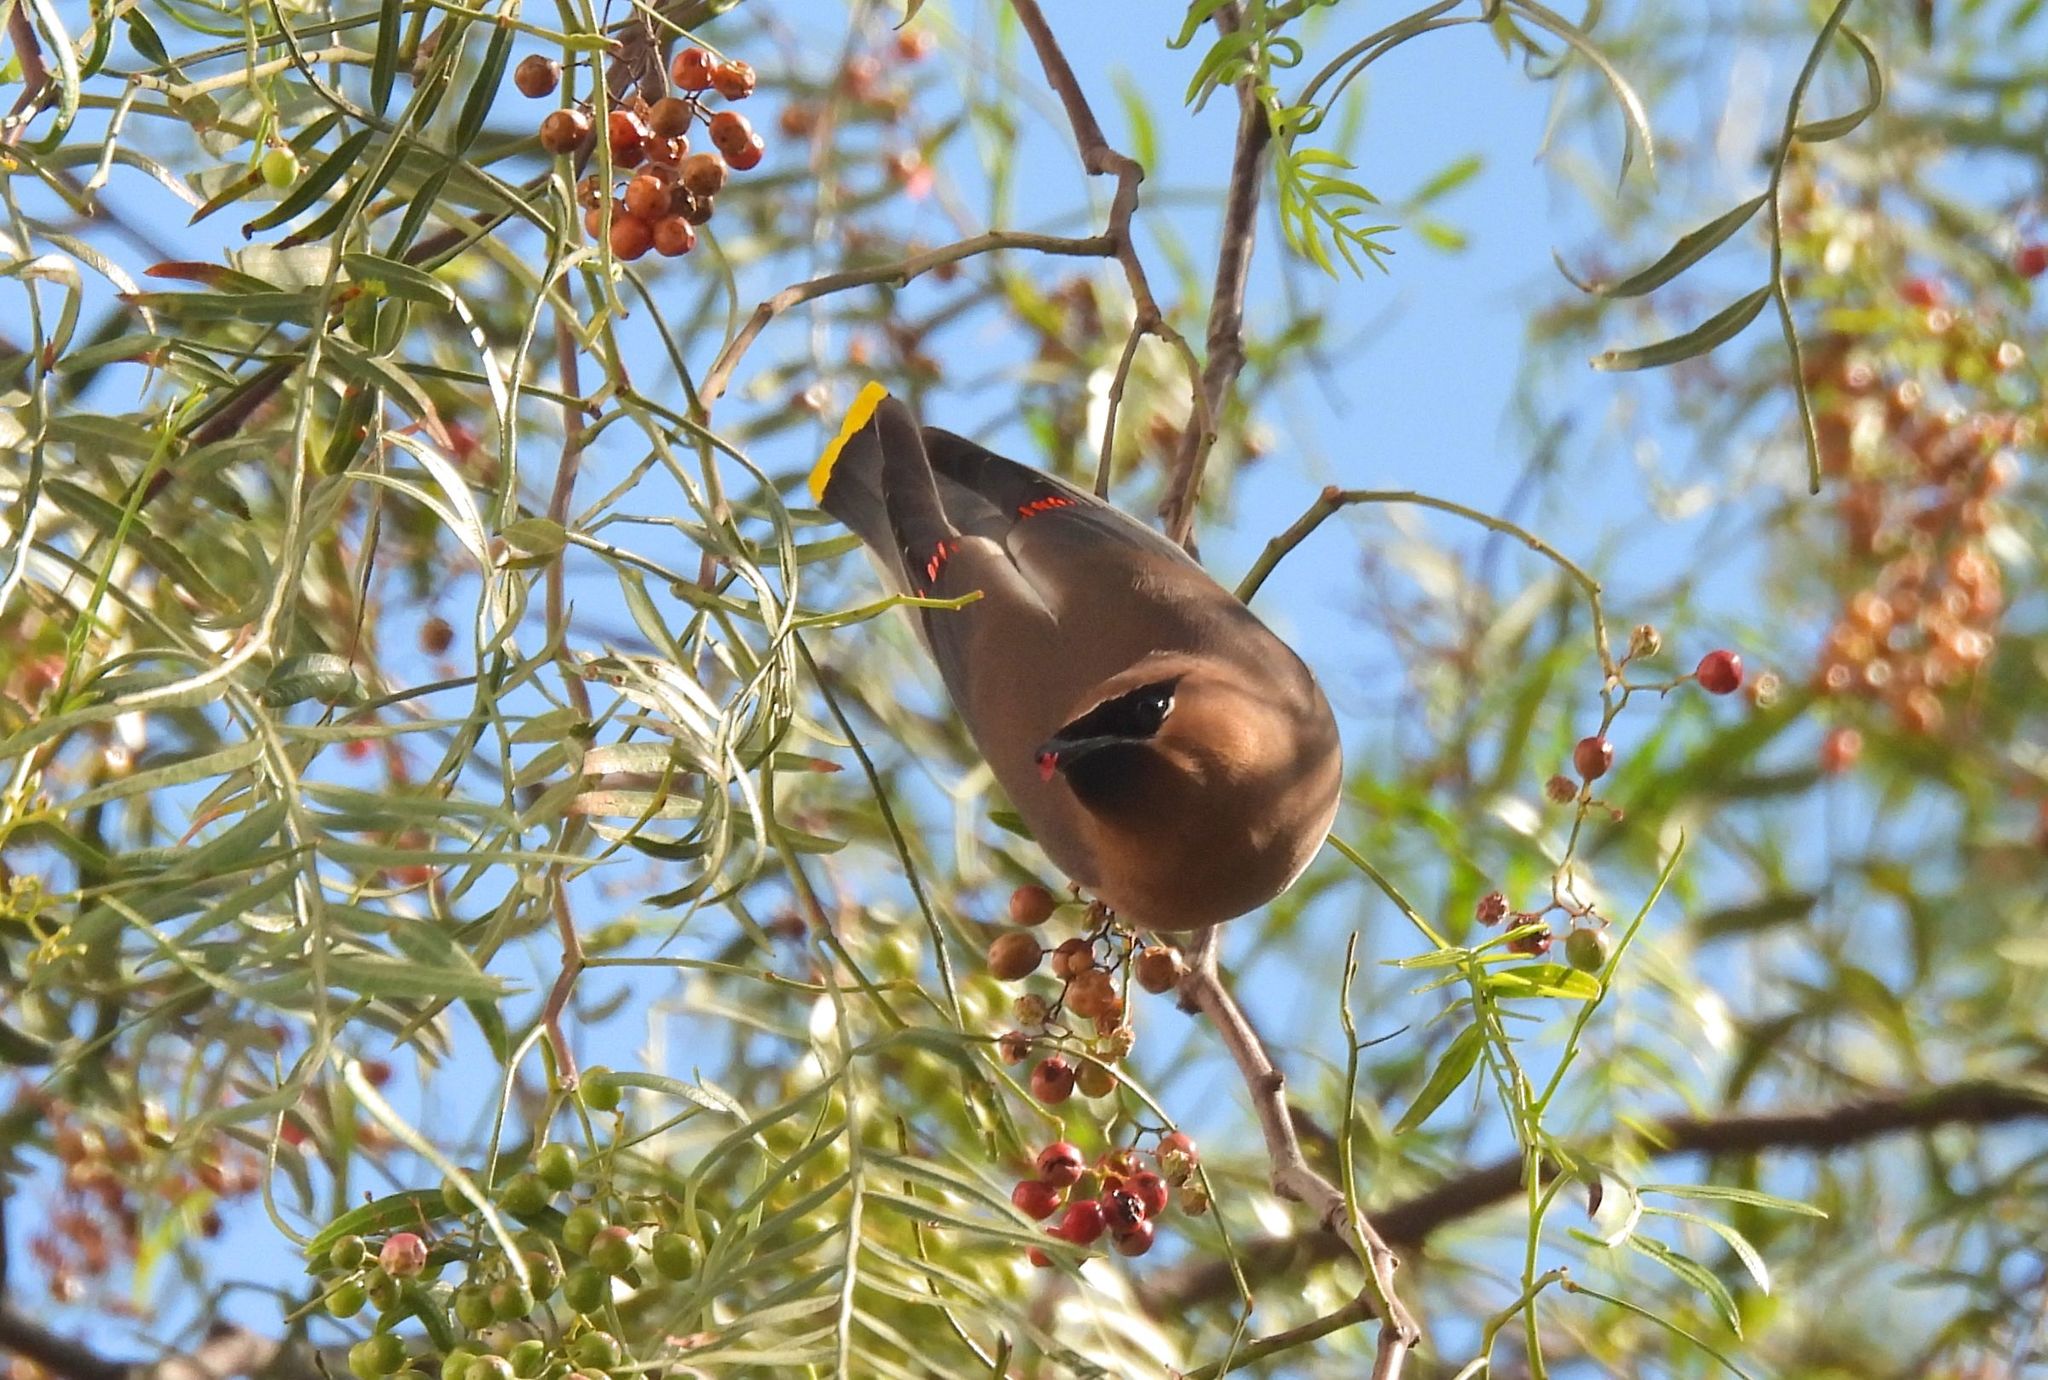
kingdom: Animalia
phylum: Chordata
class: Aves
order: Passeriformes
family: Bombycillidae
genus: Bombycilla
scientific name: Bombycilla cedrorum
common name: Cedar waxwing
